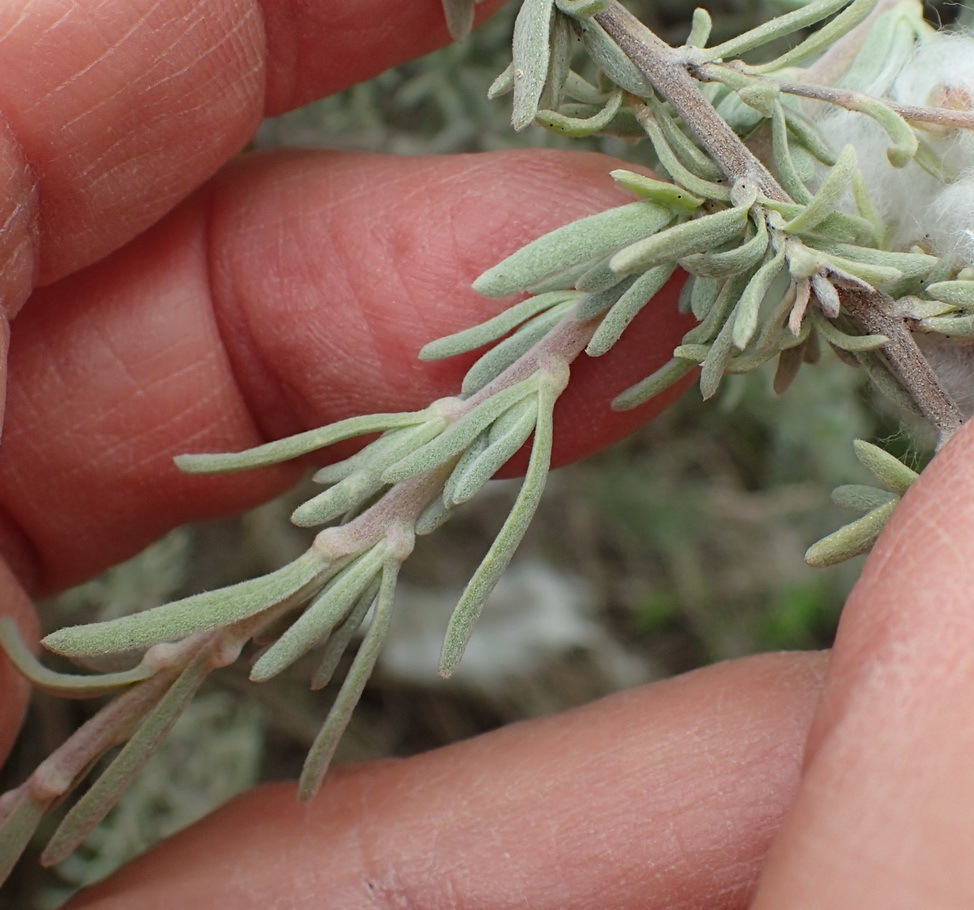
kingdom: Plantae
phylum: Tracheophyta
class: Magnoliopsida
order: Asterales
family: Asteraceae
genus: Eriocephalus
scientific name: Eriocephalus racemosus
